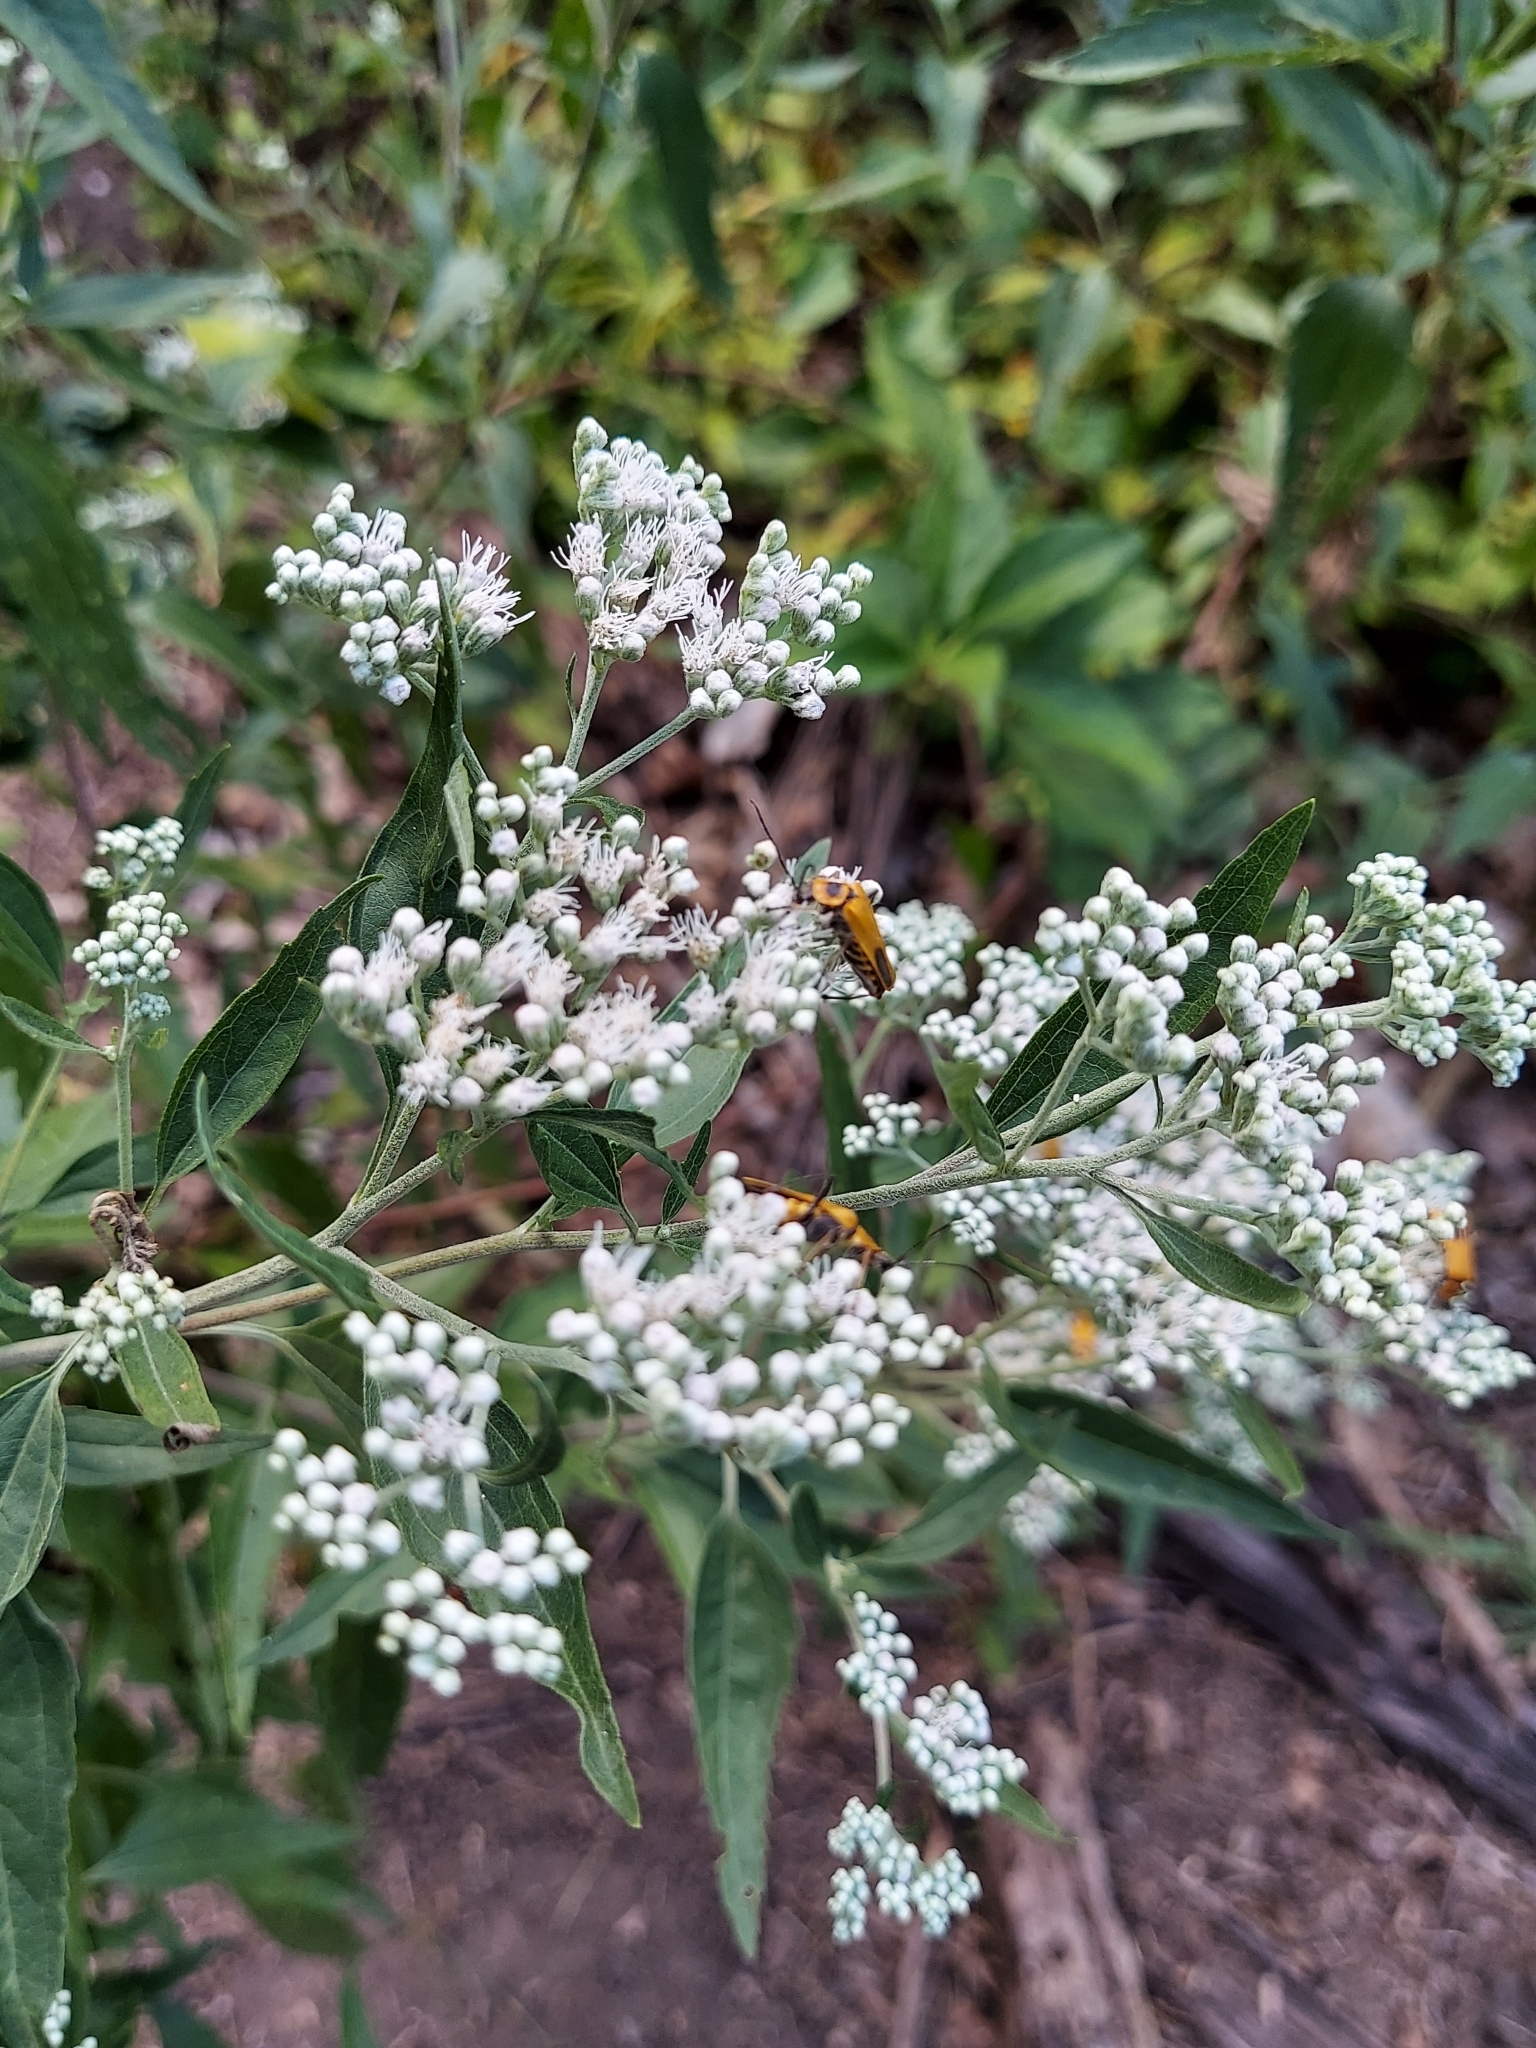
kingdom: Plantae
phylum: Tracheophyta
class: Magnoliopsida
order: Asterales
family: Asteraceae
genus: Eupatorium
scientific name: Eupatorium serotinum
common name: Late boneset
